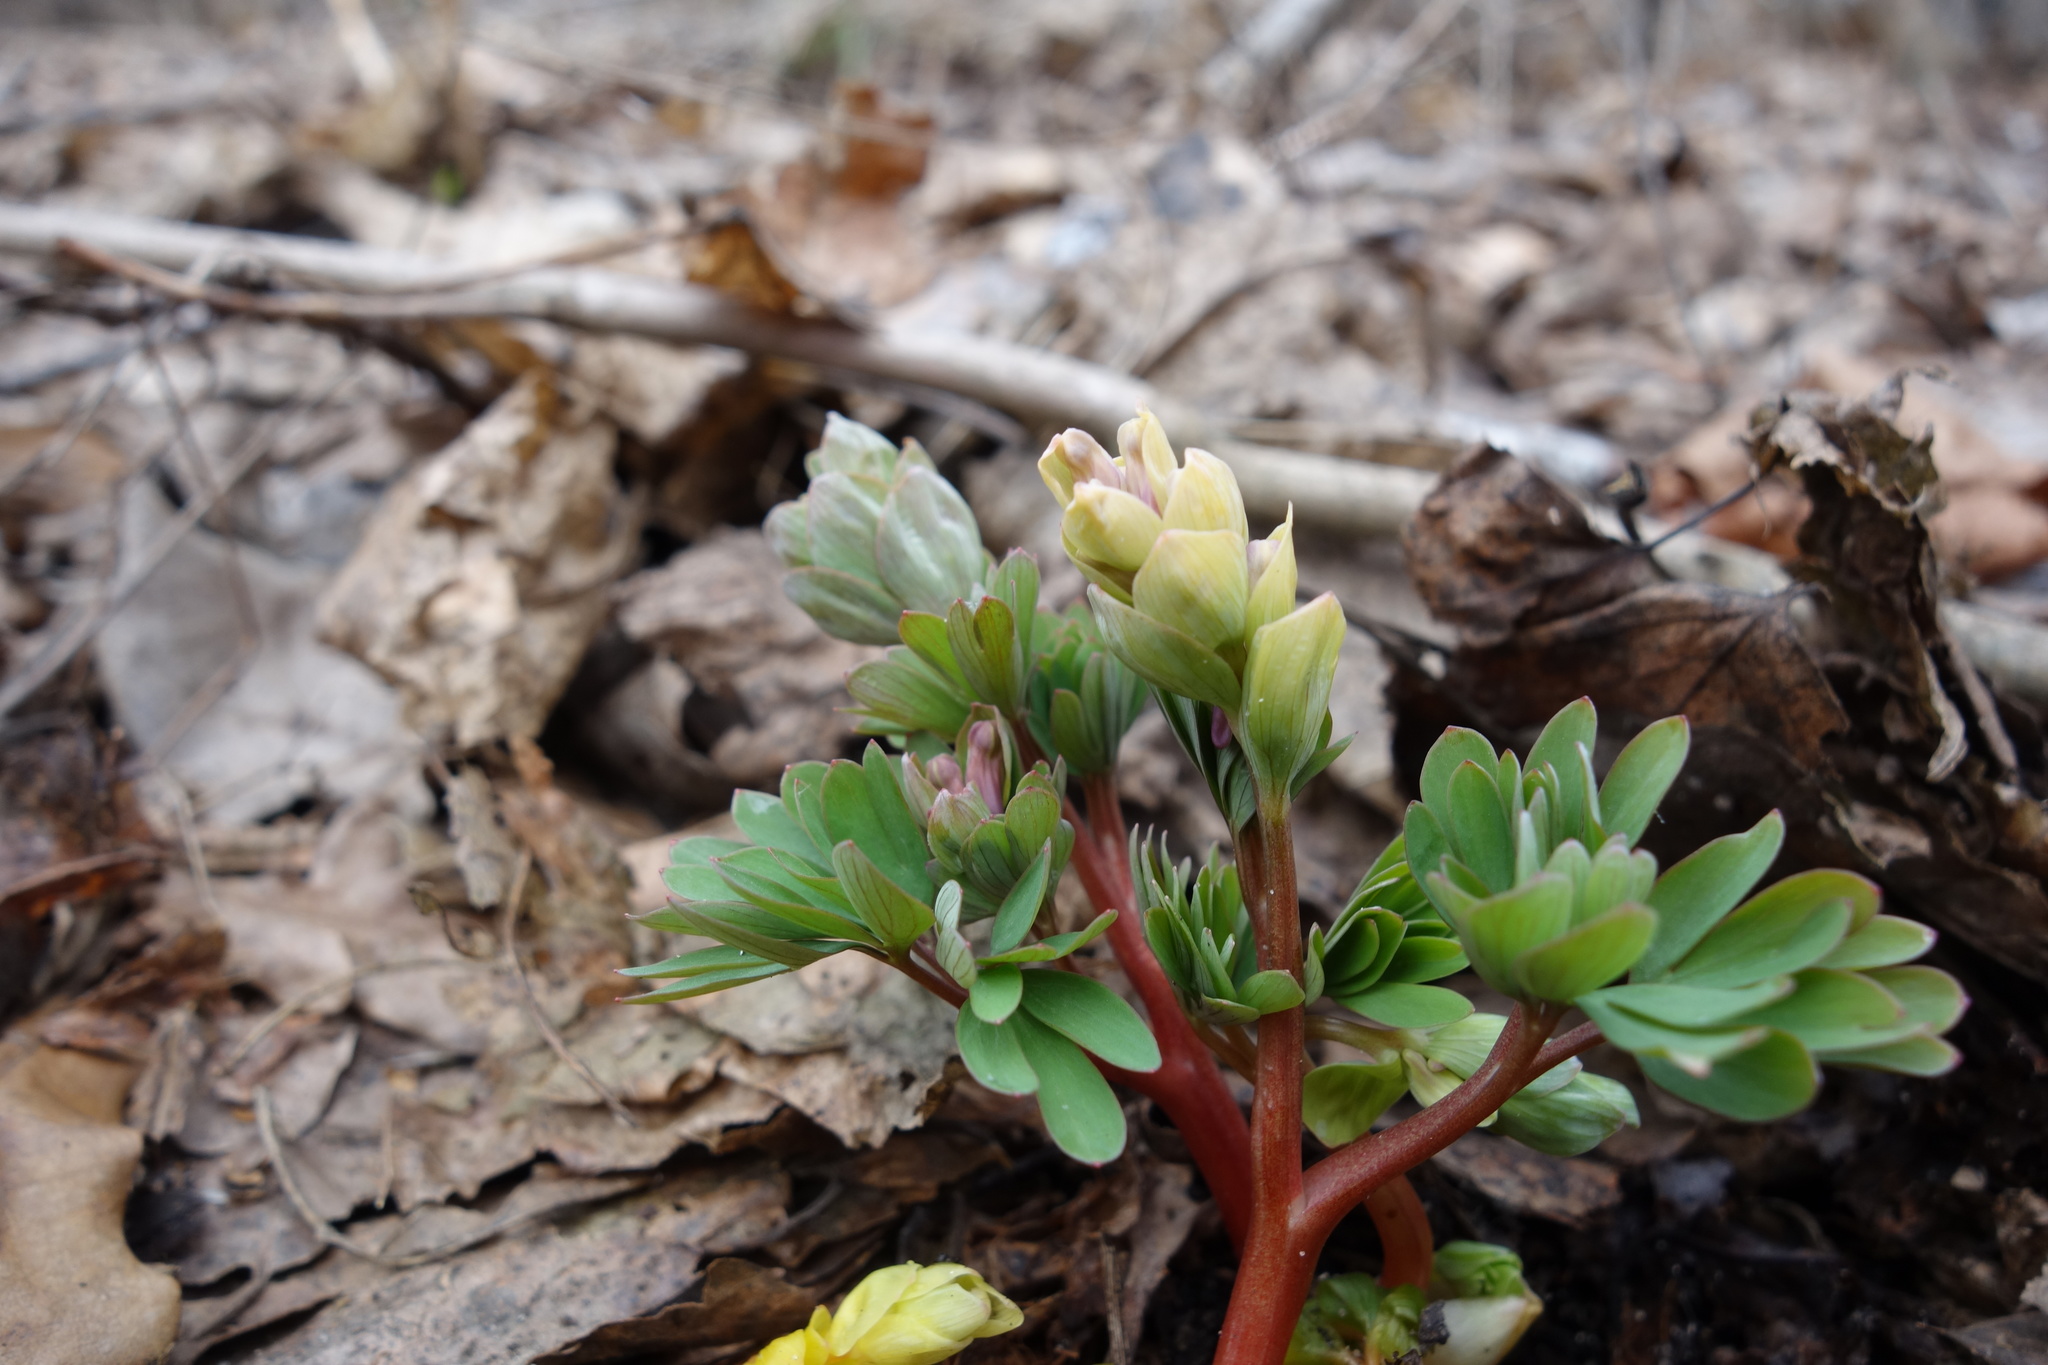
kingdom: Plantae
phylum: Tracheophyta
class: Magnoliopsida
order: Ranunculales
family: Papaveraceae
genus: Corydalis
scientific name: Corydalis intermedia
